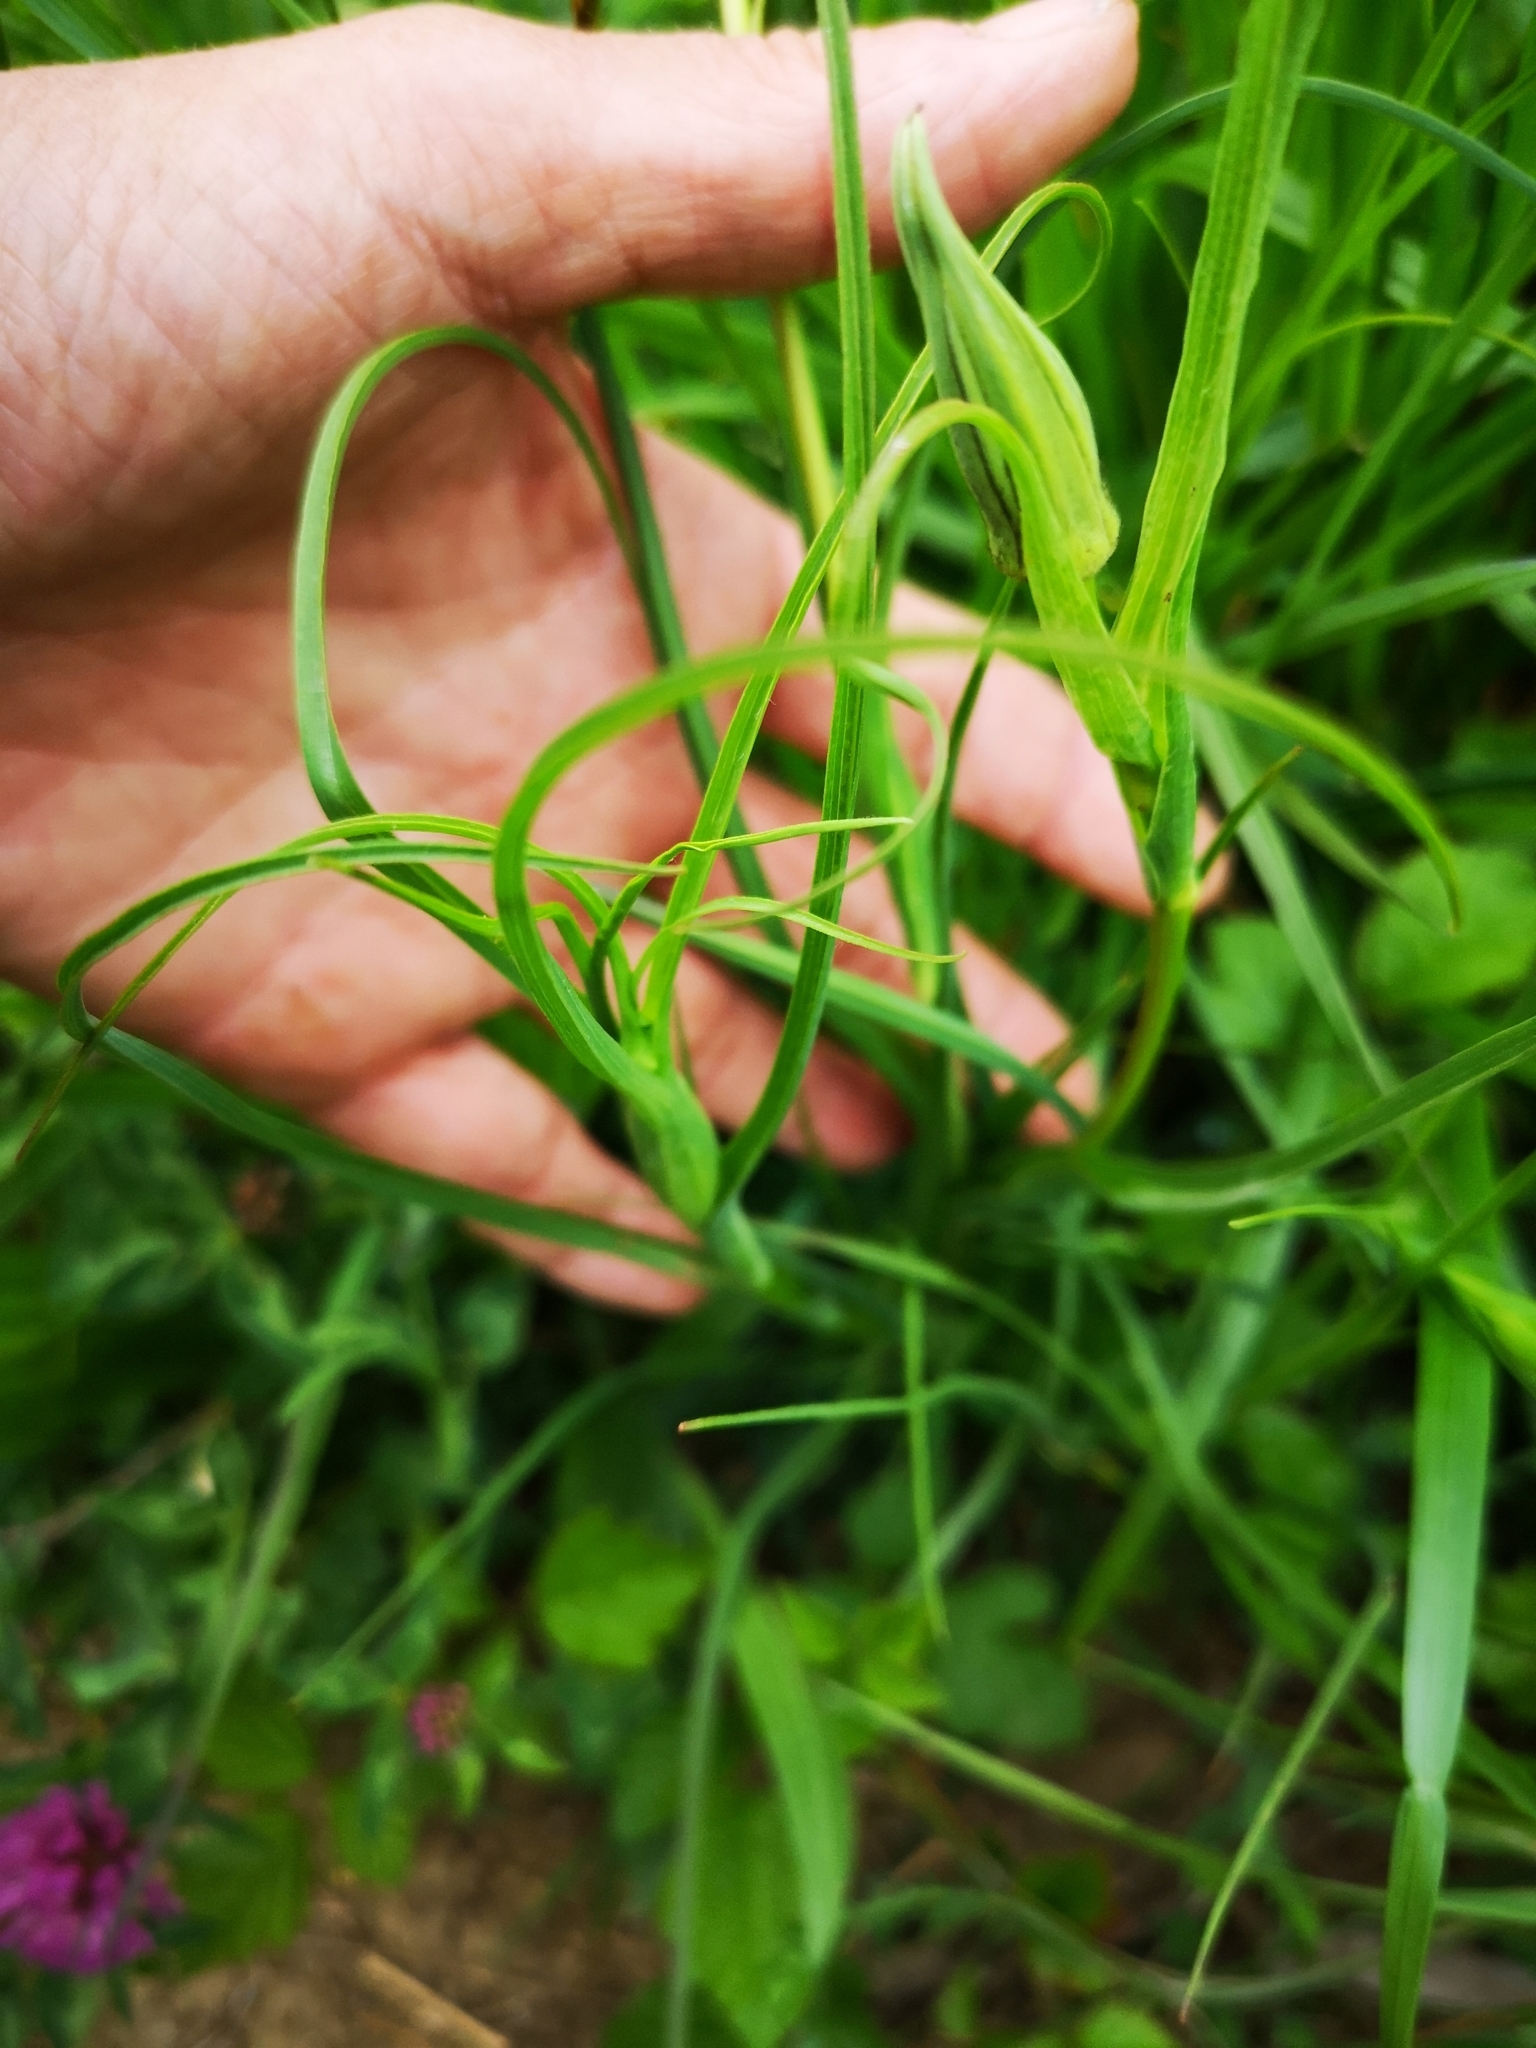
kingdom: Plantae
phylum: Tracheophyta
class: Magnoliopsida
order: Asterales
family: Asteraceae
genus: Tragopogon
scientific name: Tragopogon orientalis
